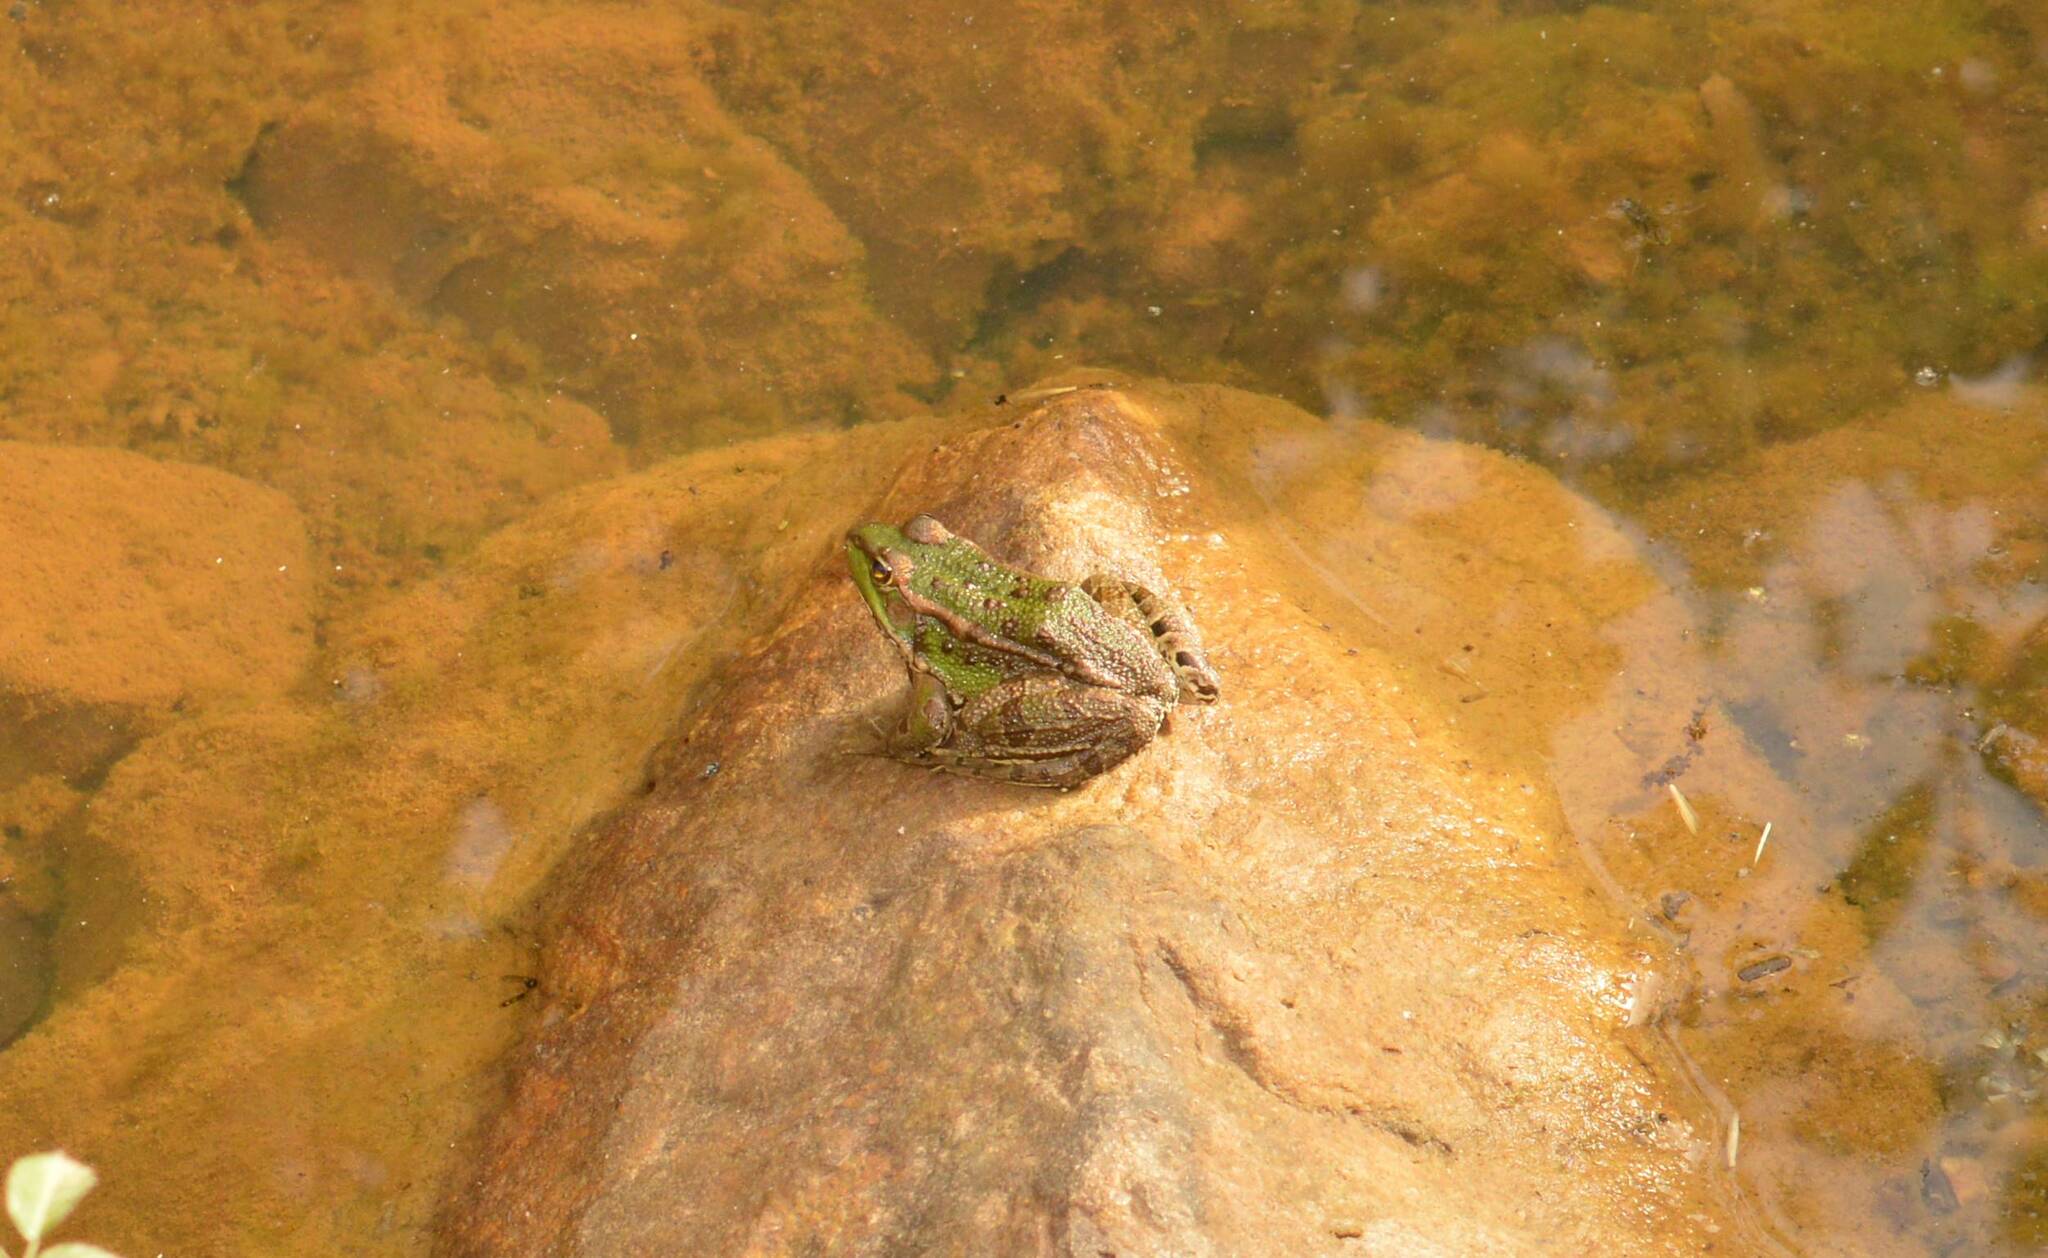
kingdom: Animalia
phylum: Chordata
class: Amphibia
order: Anura
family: Ranidae
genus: Pelophylax
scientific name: Pelophylax saharicus
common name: Sahara frog
